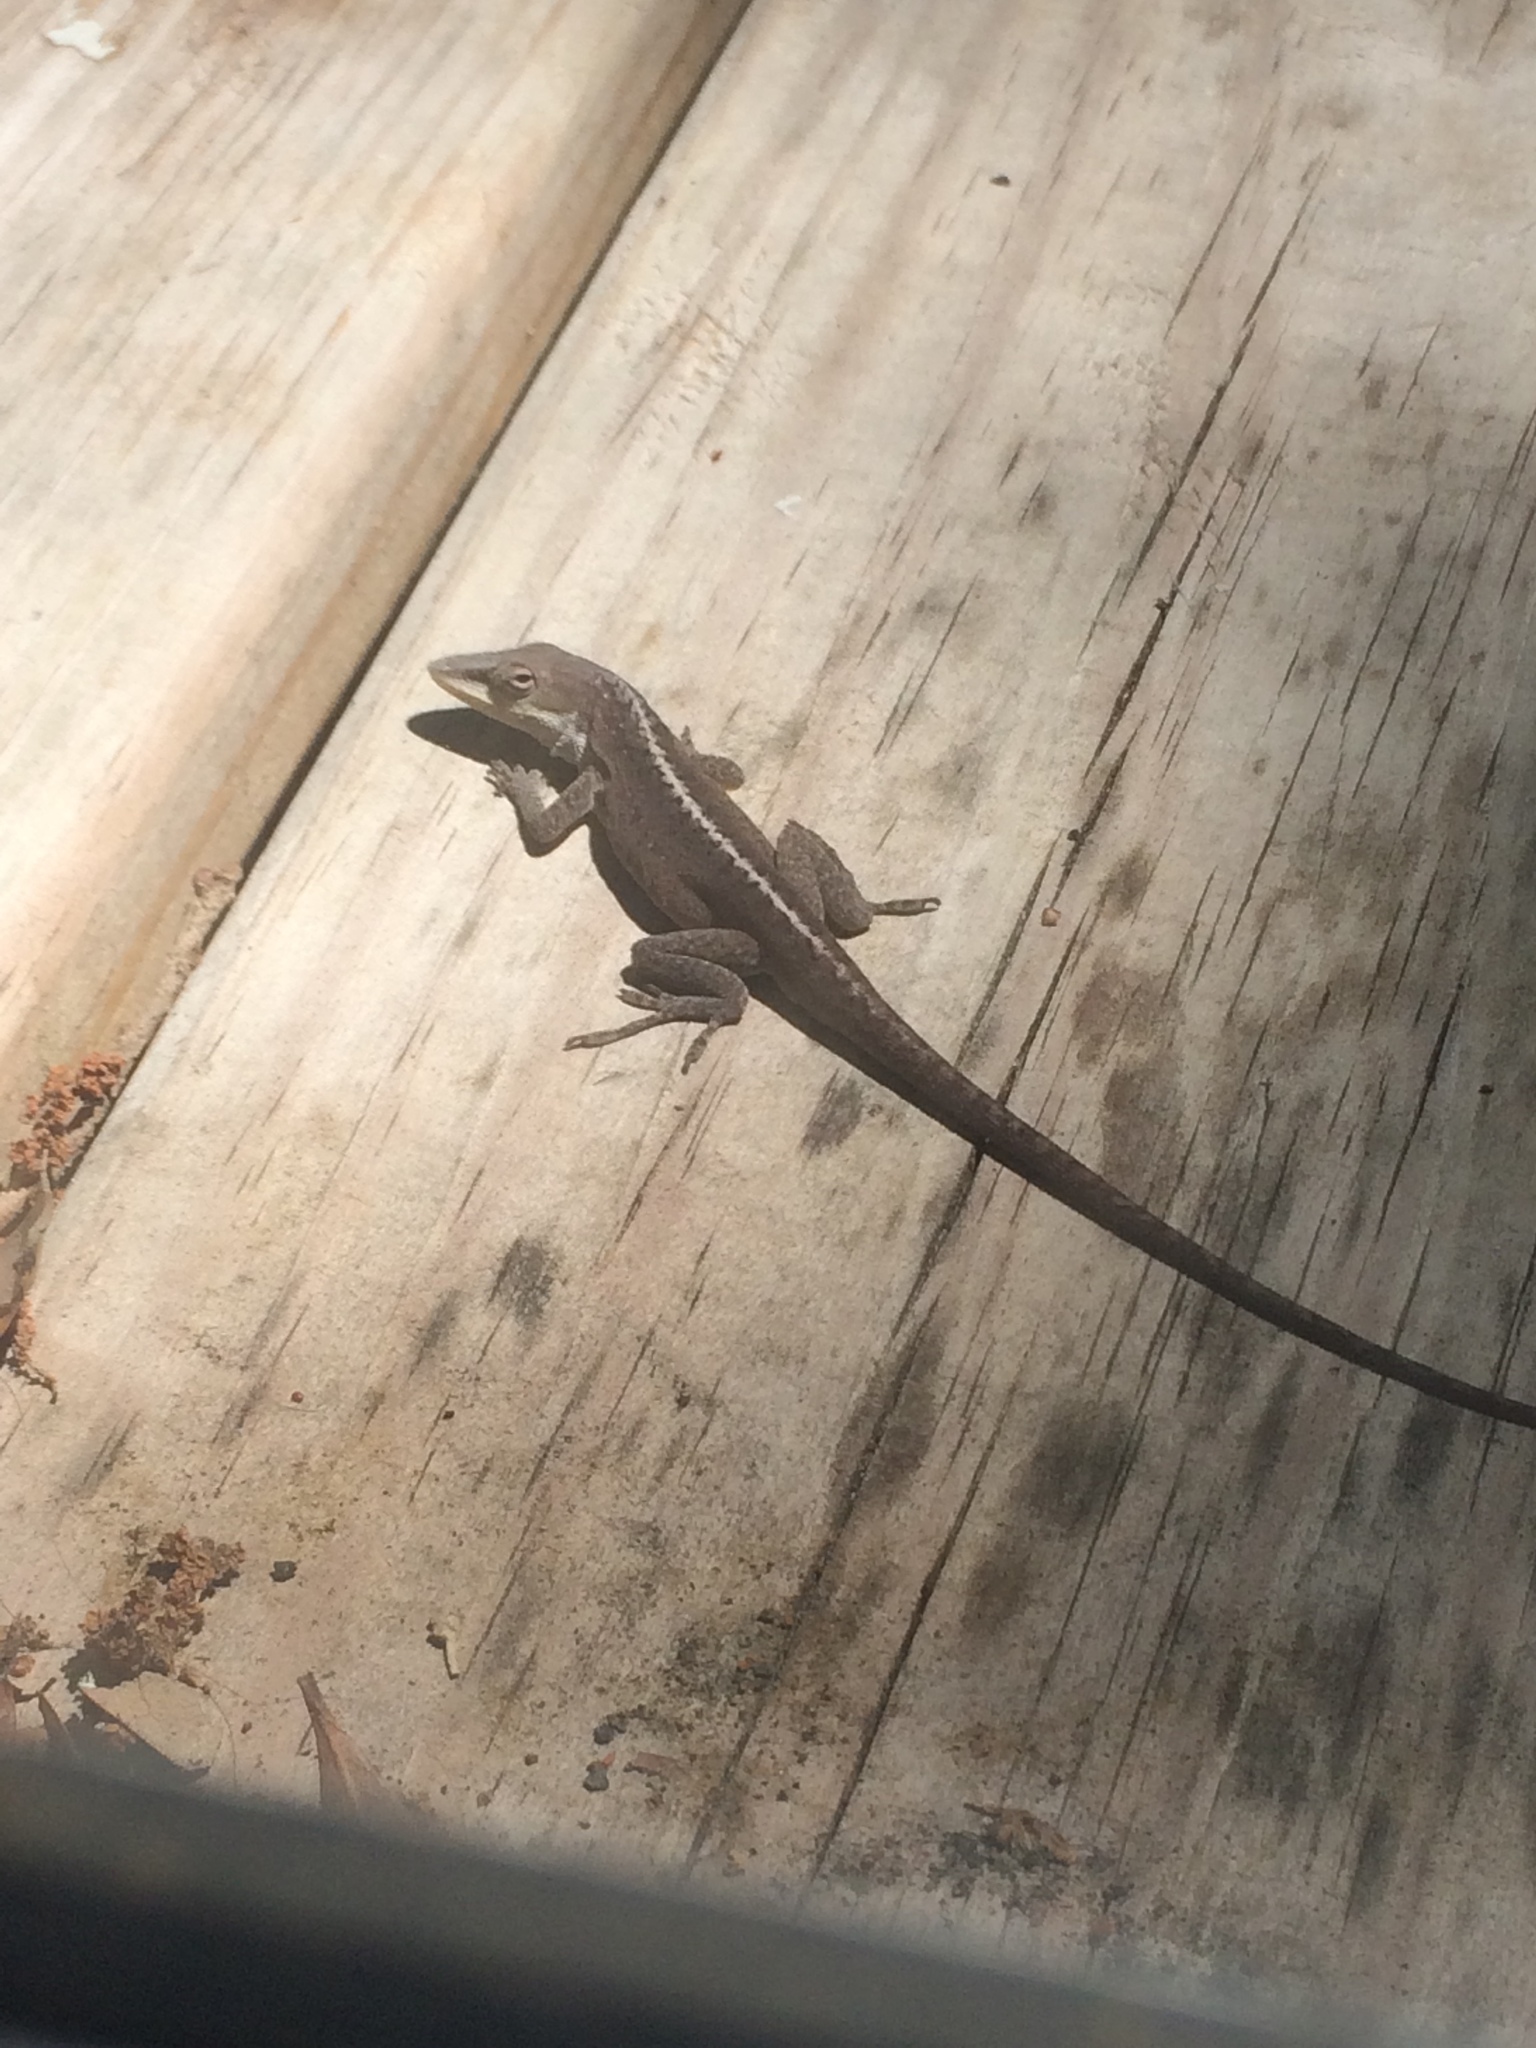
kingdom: Animalia
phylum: Chordata
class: Squamata
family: Dactyloidae
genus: Anolis
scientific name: Anolis carolinensis
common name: Green anole
